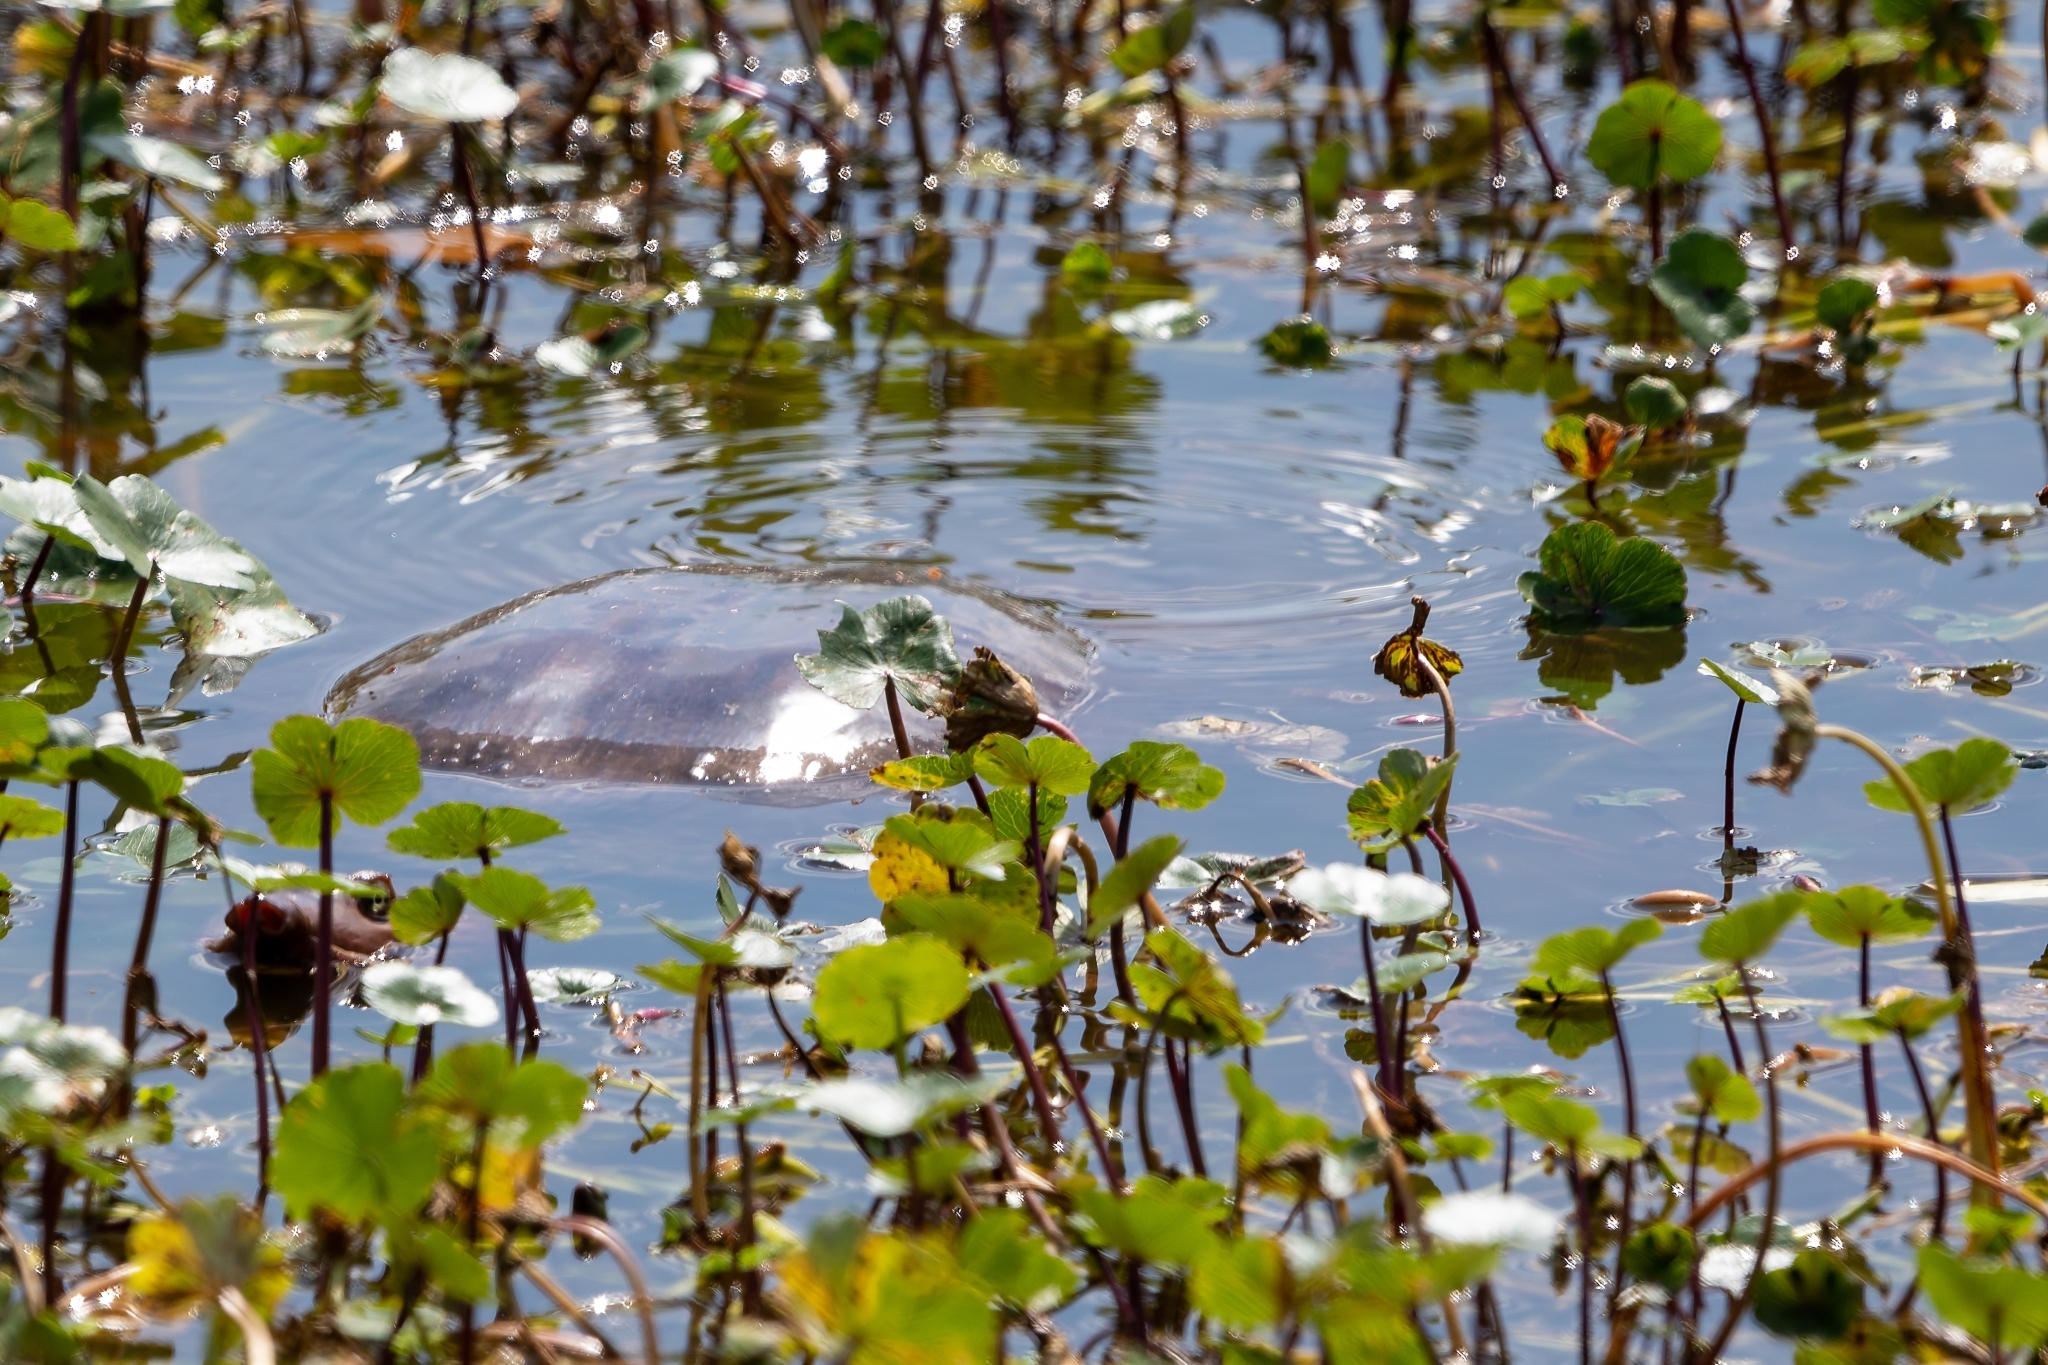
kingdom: Animalia
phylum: Chordata
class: Testudines
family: Trionychidae
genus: Apalone
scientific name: Apalone ferox
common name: Florida softshell turtle
